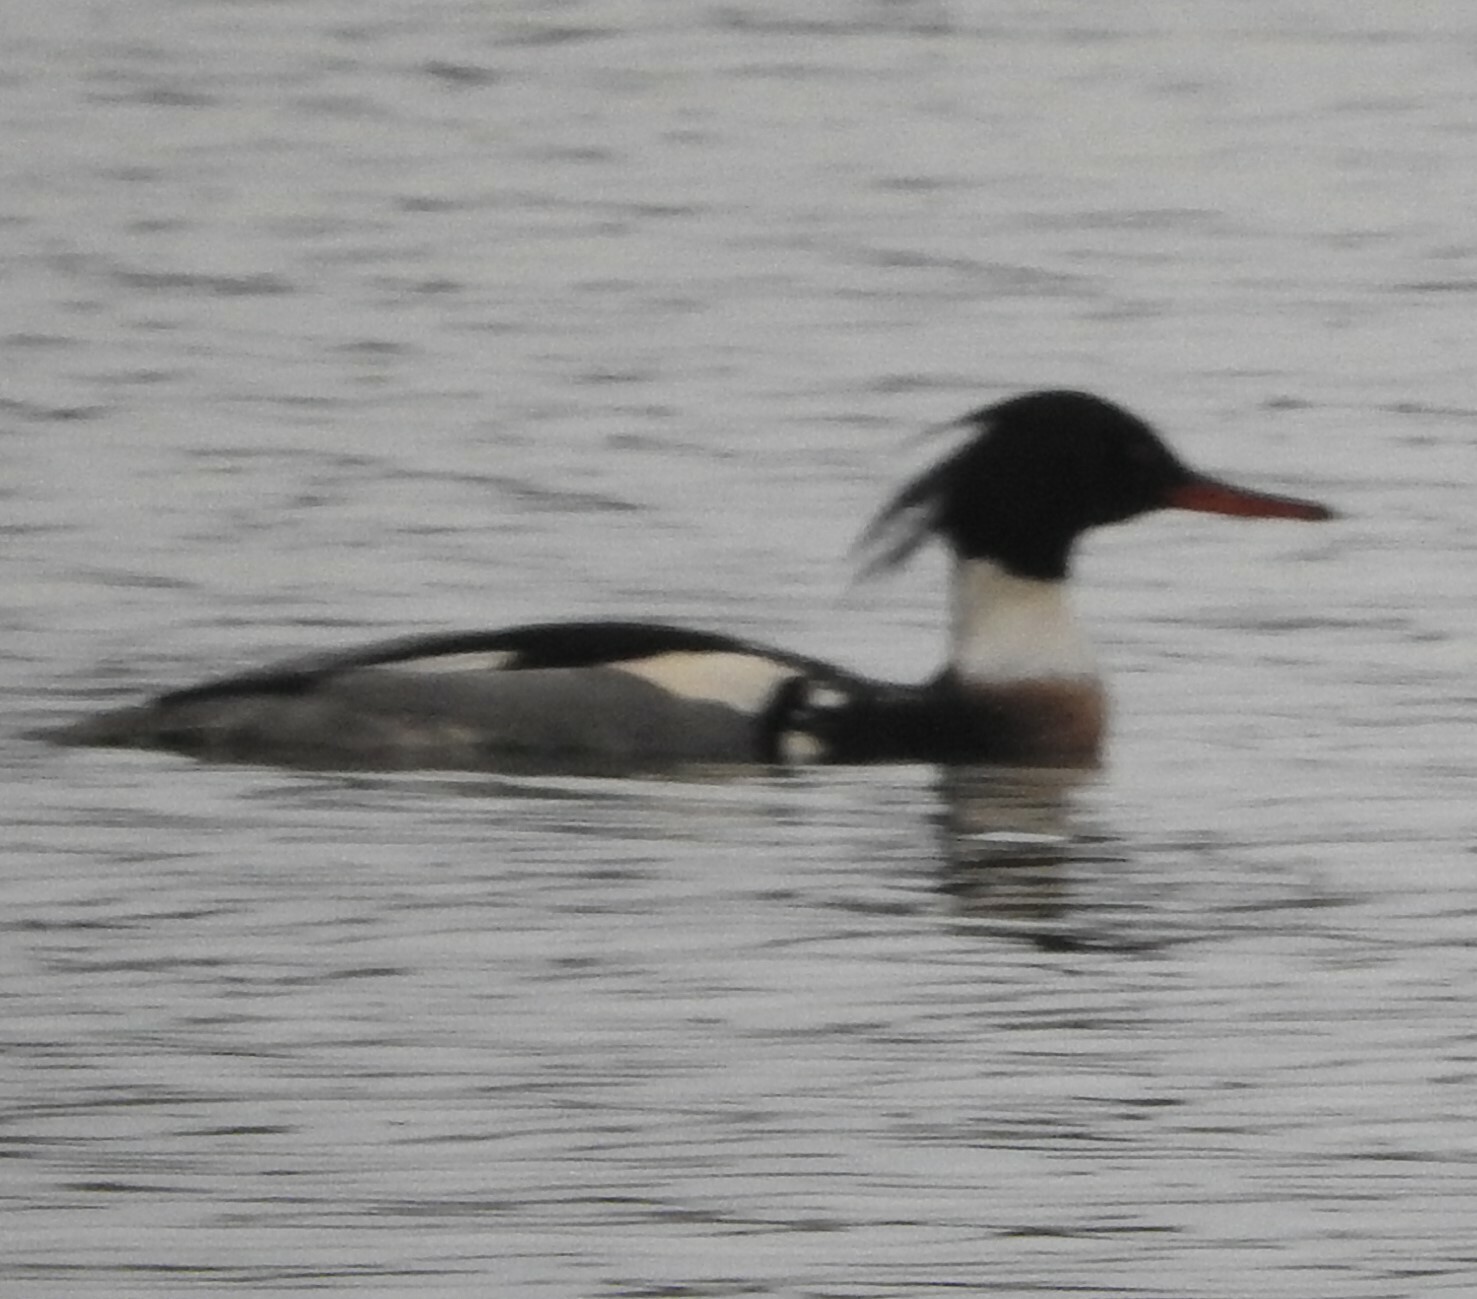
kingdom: Animalia
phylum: Chordata
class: Aves
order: Anseriformes
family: Anatidae
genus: Mergus
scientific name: Mergus serrator
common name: Red-breasted merganser
